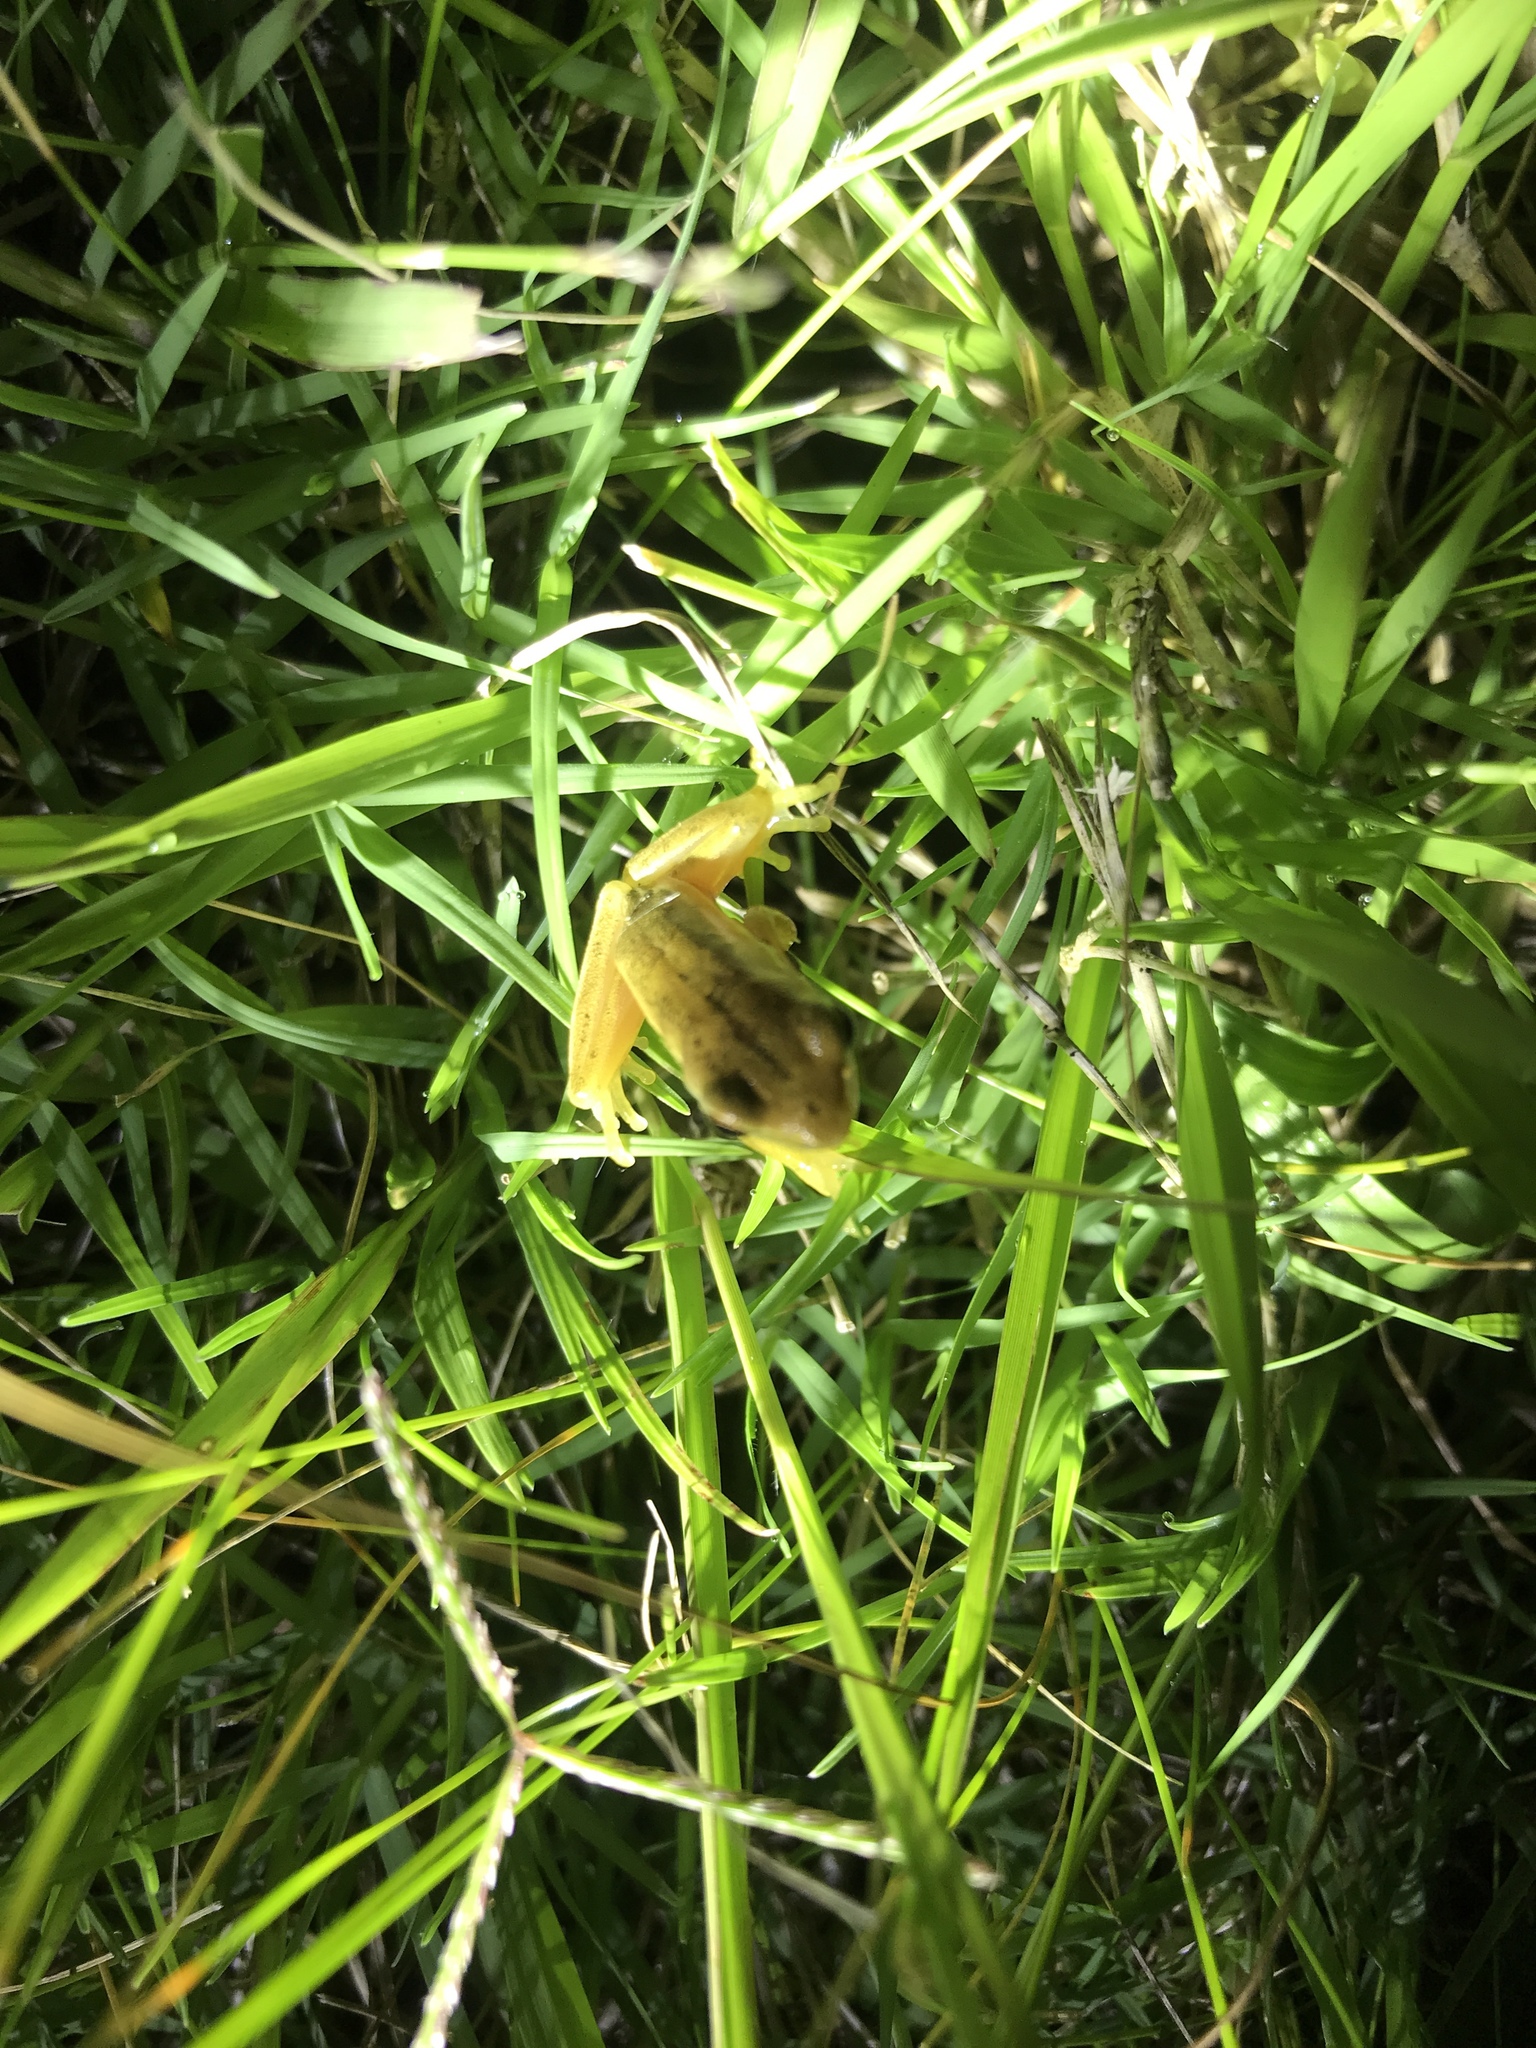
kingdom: Animalia
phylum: Chordata
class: Amphibia
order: Anura
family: Hylidae
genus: Boana
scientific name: Boana pulchella
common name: Montevideo treefrog
